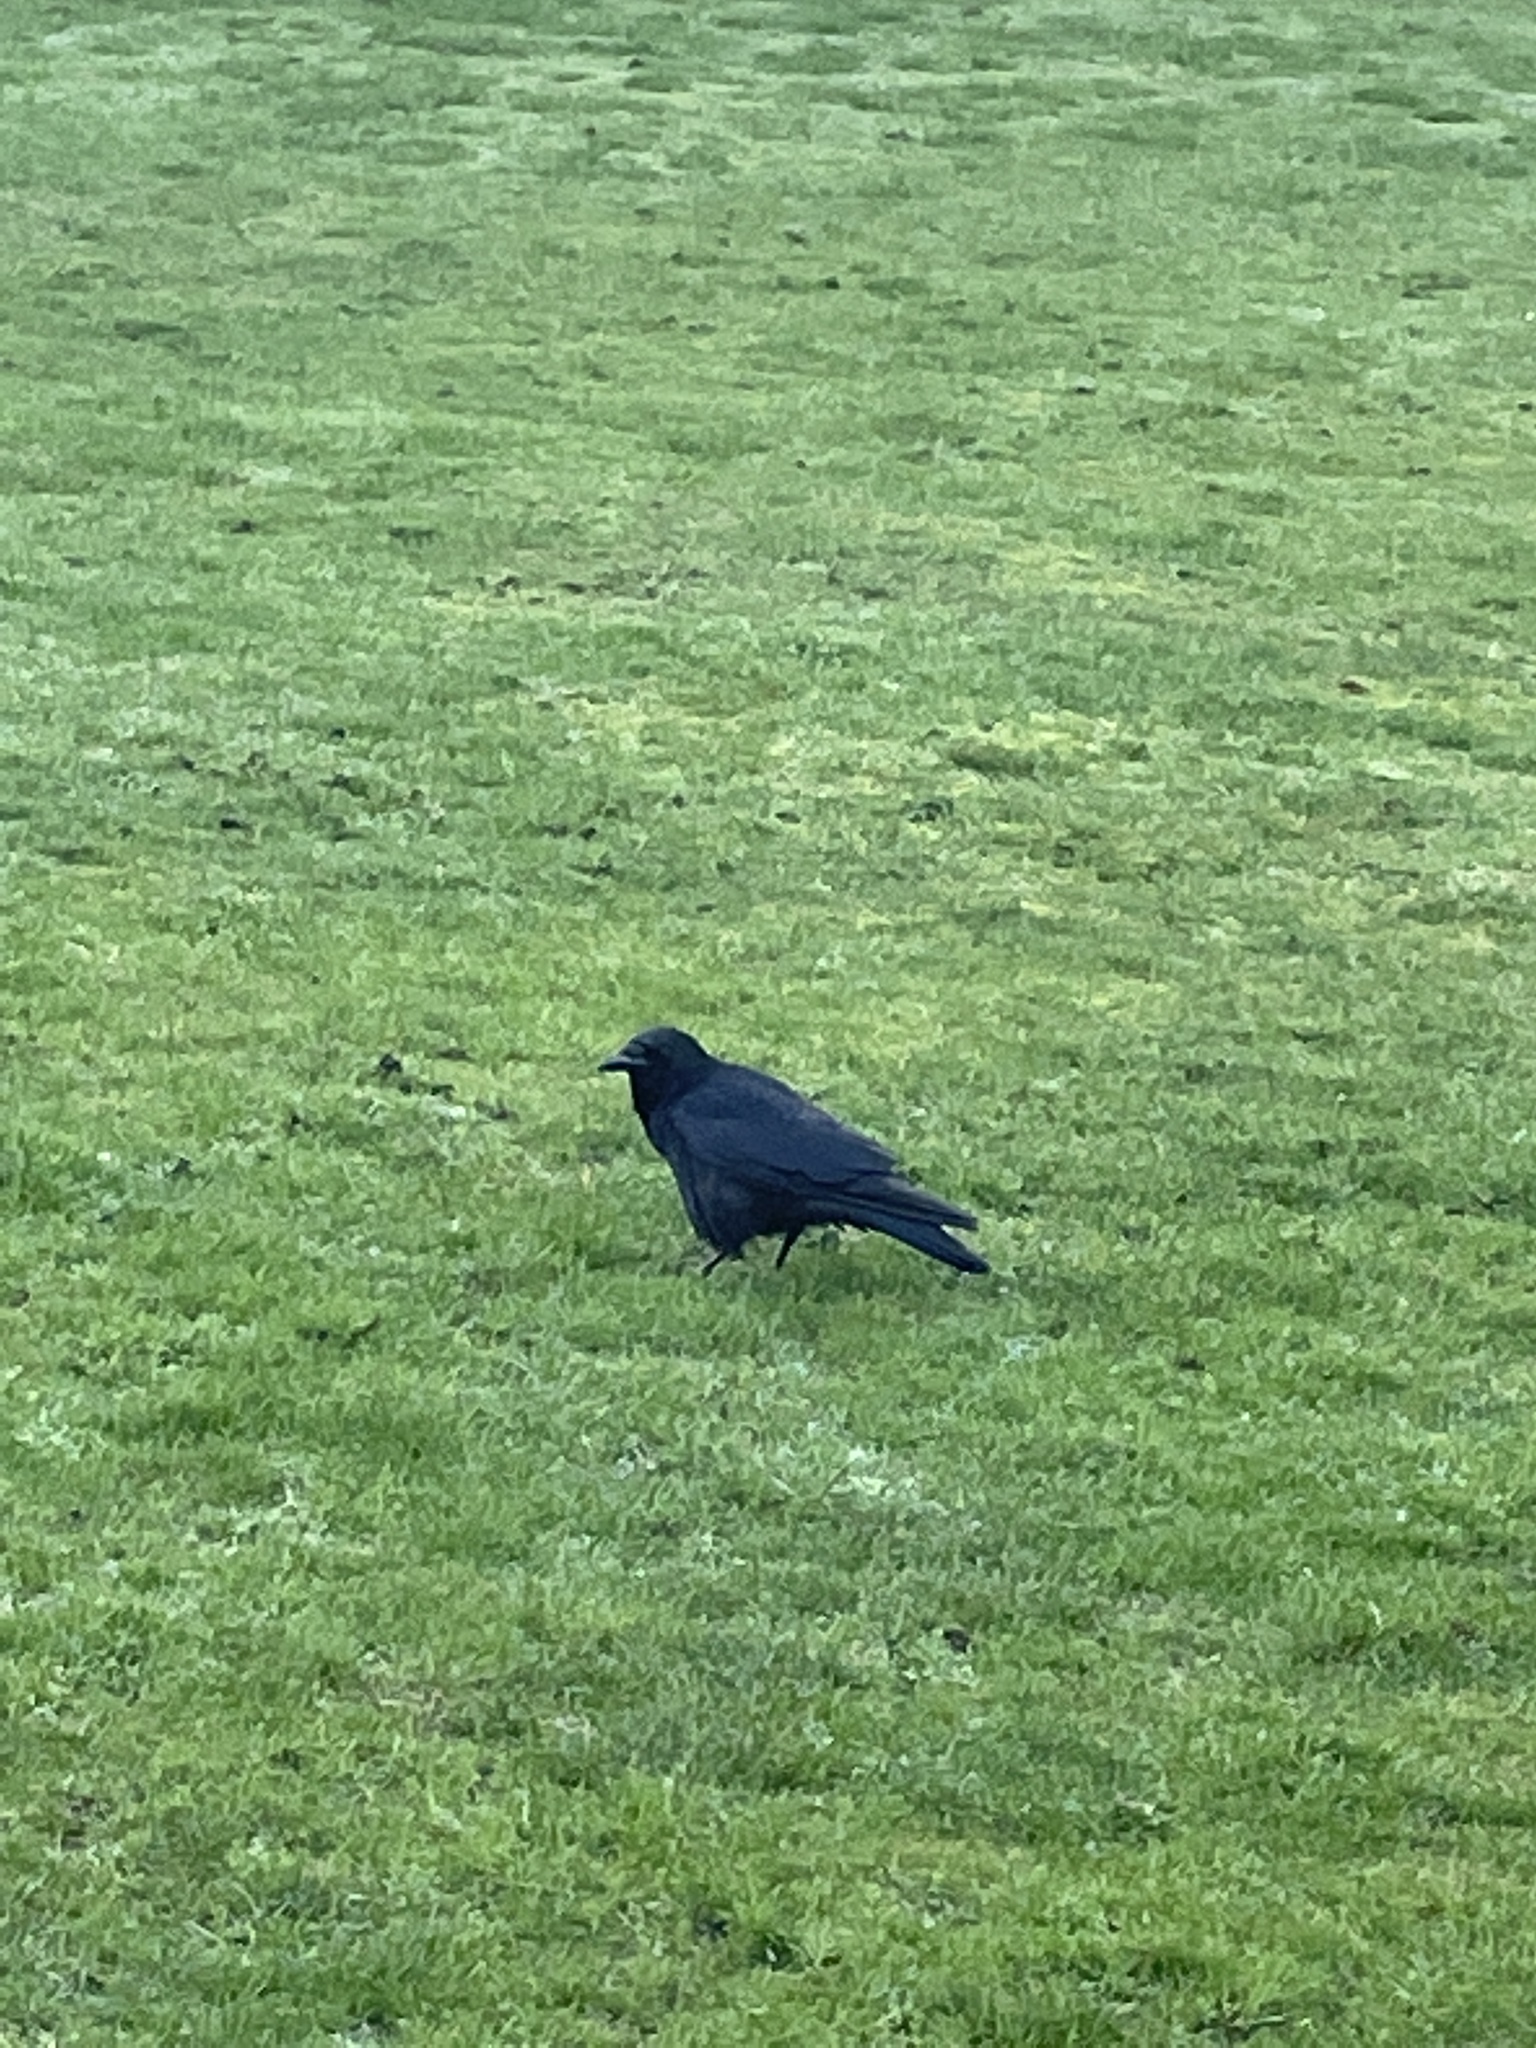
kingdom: Animalia
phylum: Chordata
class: Aves
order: Passeriformes
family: Corvidae
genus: Corvus
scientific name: Corvus corone
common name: Carrion crow
